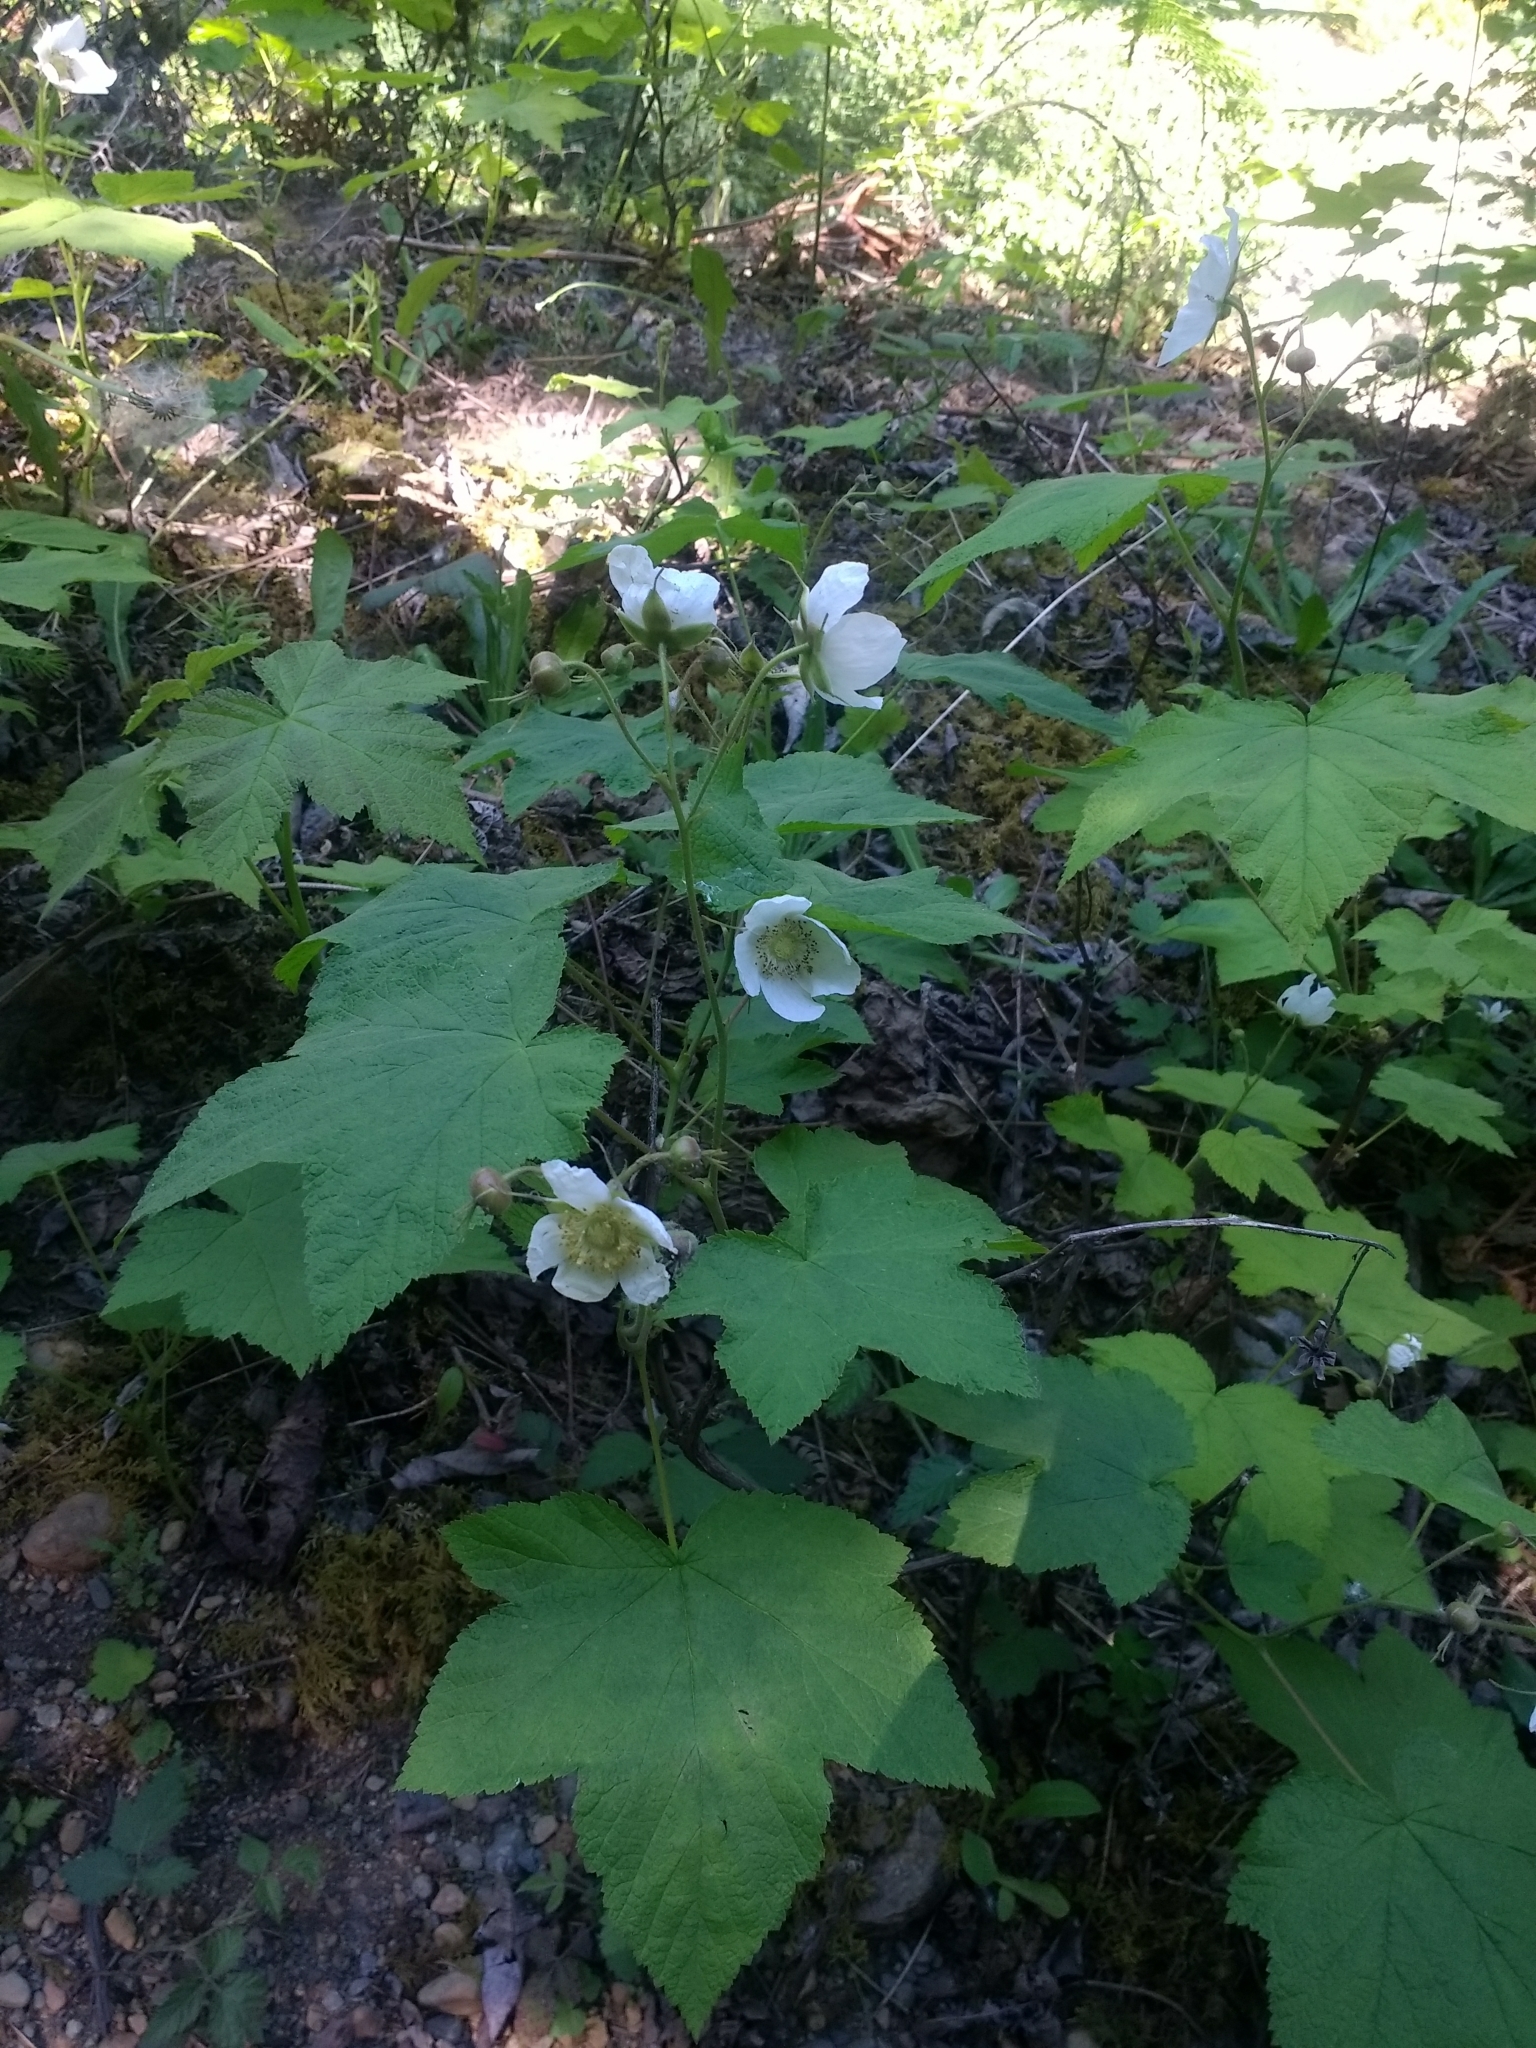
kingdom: Plantae
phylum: Tracheophyta
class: Magnoliopsida
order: Rosales
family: Rosaceae
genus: Rubus
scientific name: Rubus parviflorus
